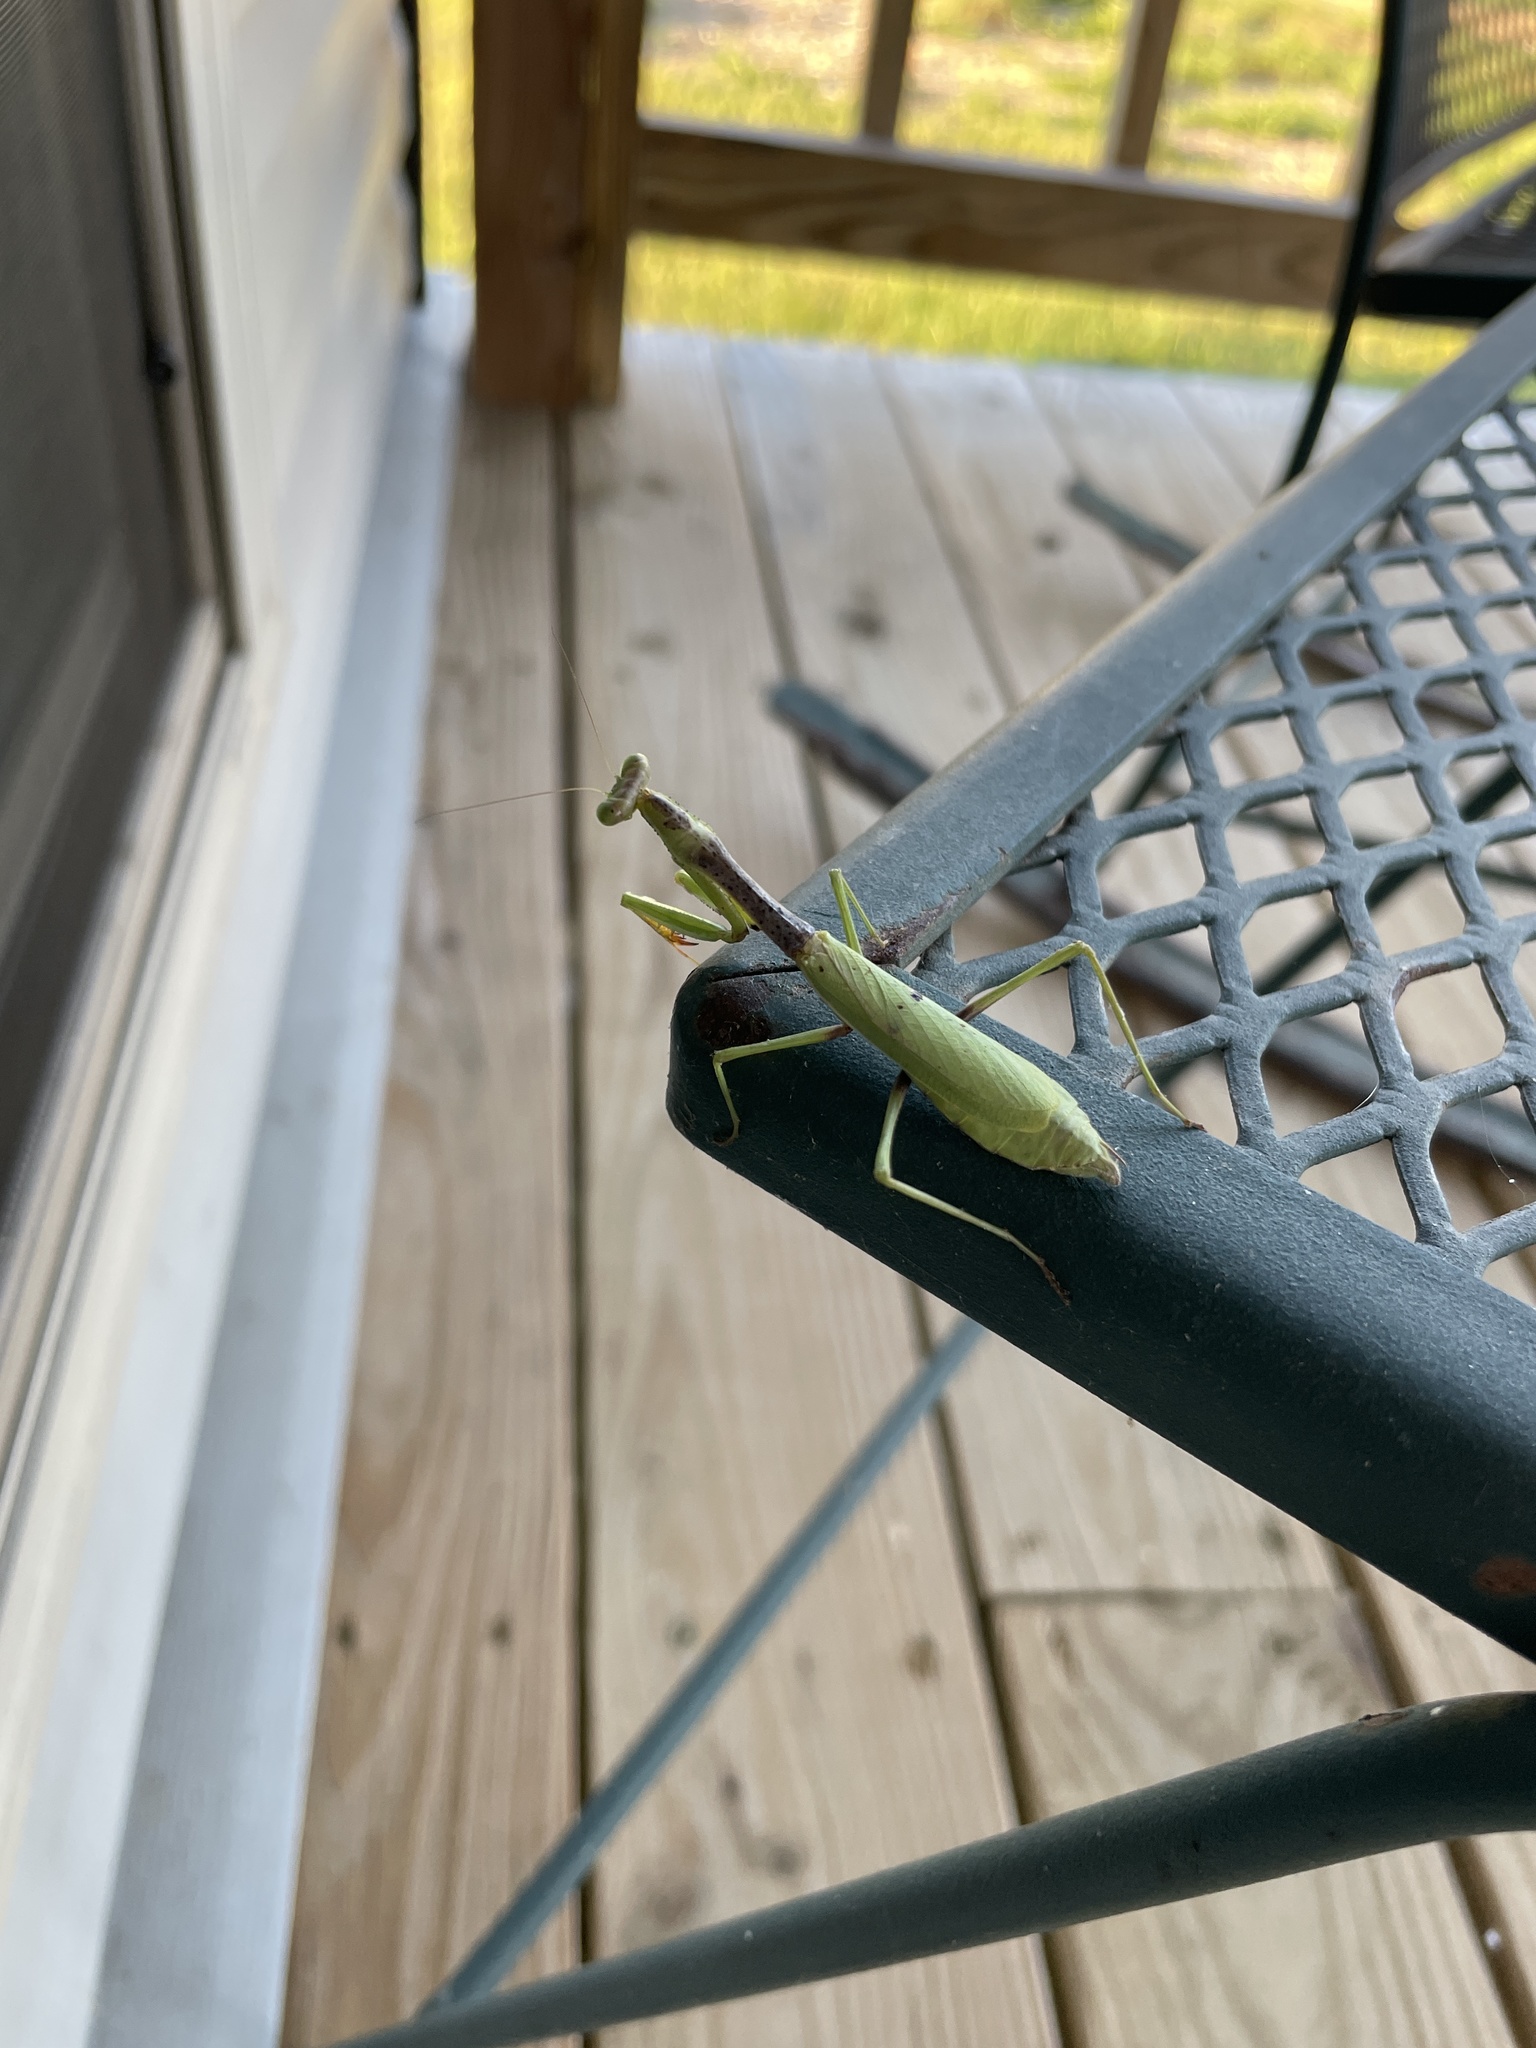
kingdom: Animalia
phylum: Arthropoda
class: Insecta
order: Mantodea
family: Mantidae
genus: Stagmomantis
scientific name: Stagmomantis carolina
